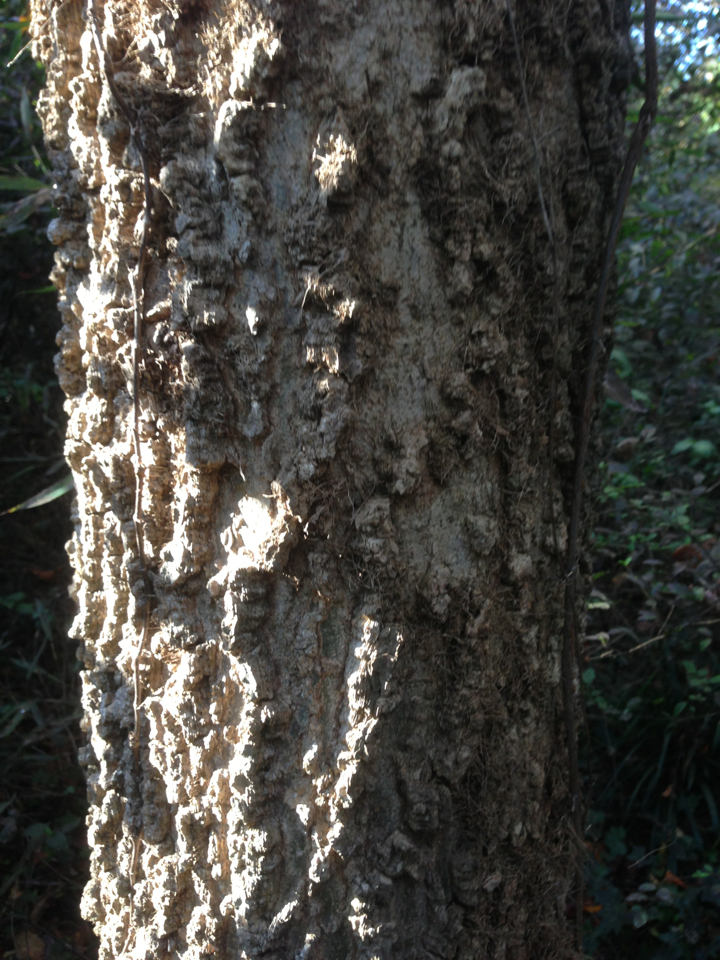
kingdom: Plantae
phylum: Tracheophyta
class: Magnoliopsida
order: Rosales
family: Cannabaceae
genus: Celtis
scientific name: Celtis laevigata
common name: Sugarberry
